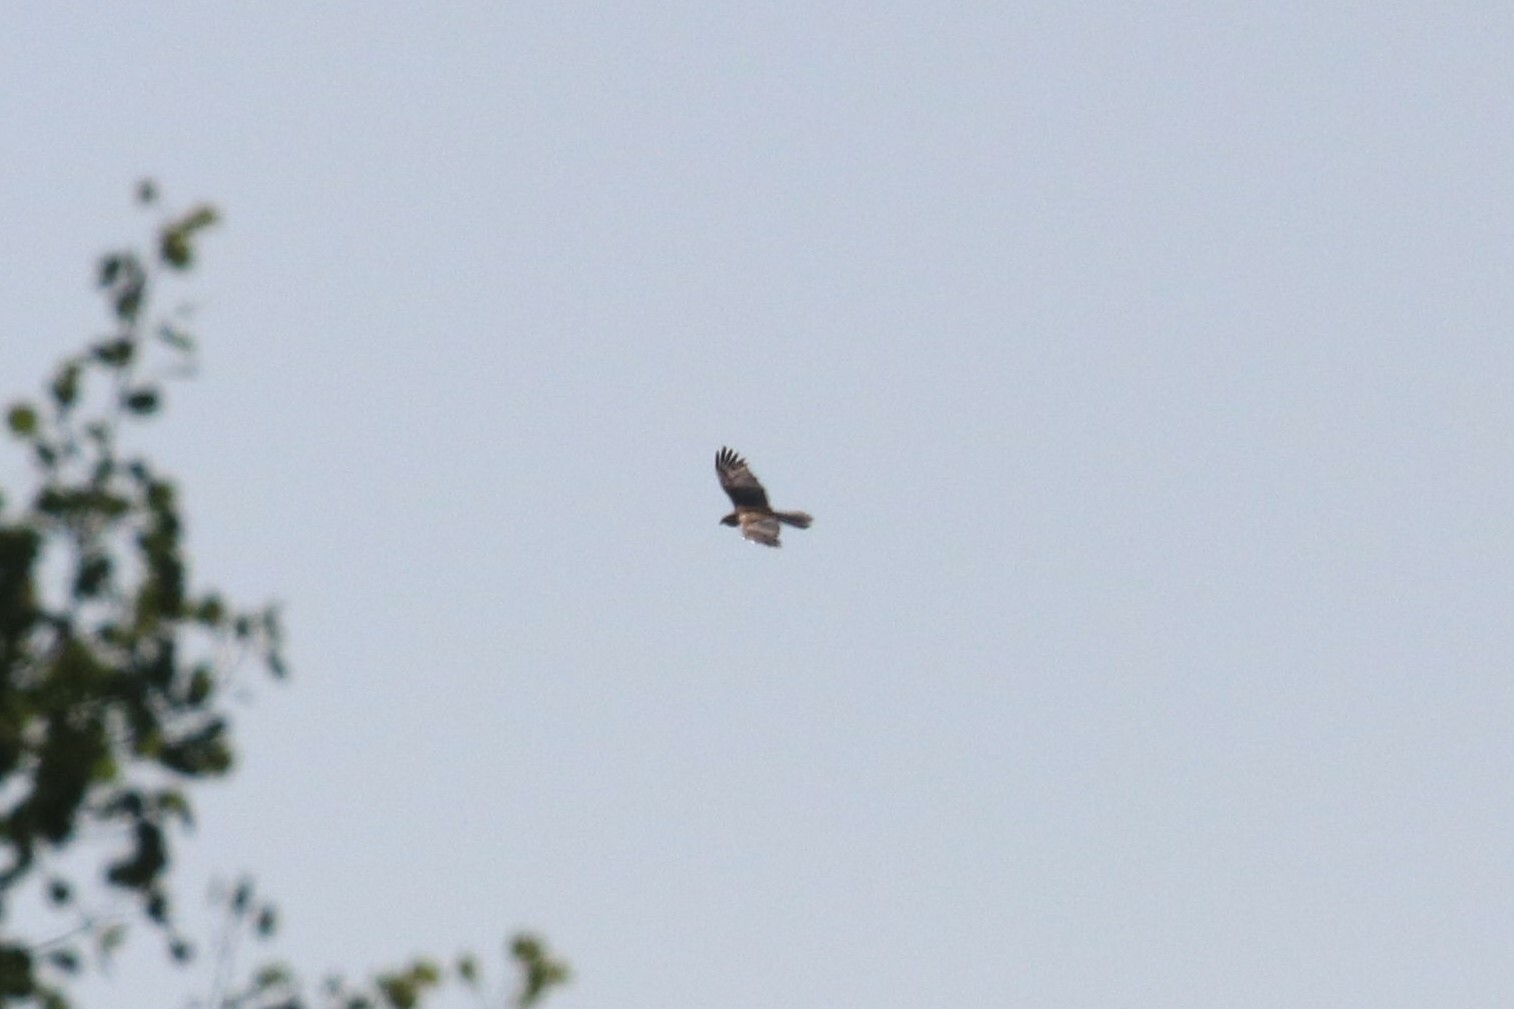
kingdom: Animalia
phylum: Chordata
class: Aves
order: Accipitriformes
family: Accipitridae
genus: Circus
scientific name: Circus aeruginosus
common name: Western marsh harrier
